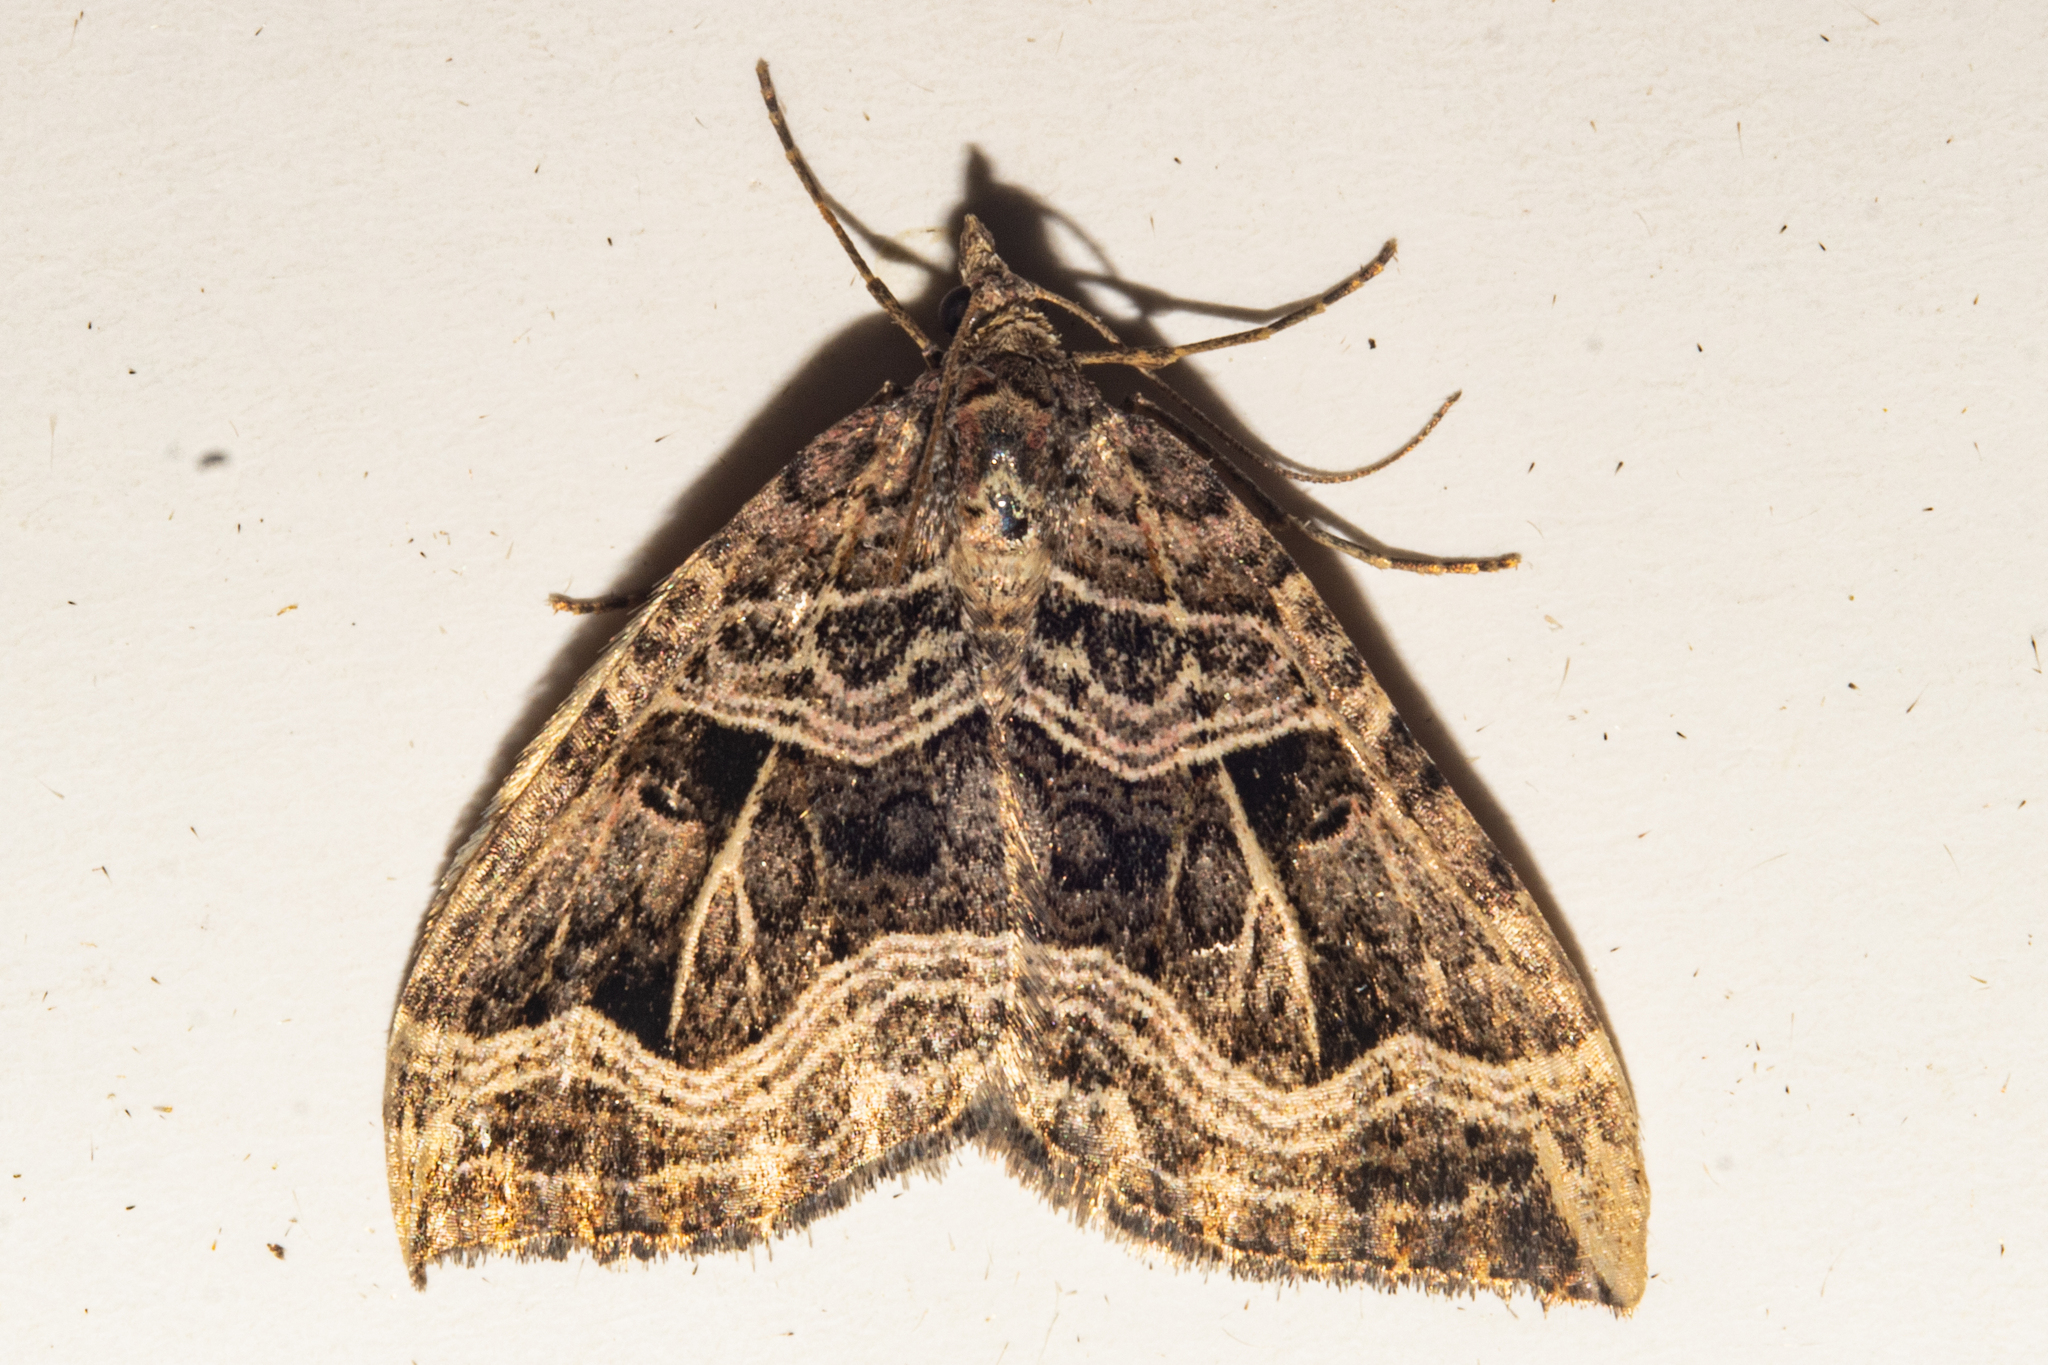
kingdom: Animalia
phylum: Arthropoda
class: Insecta
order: Lepidoptera
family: Geometridae
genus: Xanthorhoe
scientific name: Xanthorhoe semifissata
